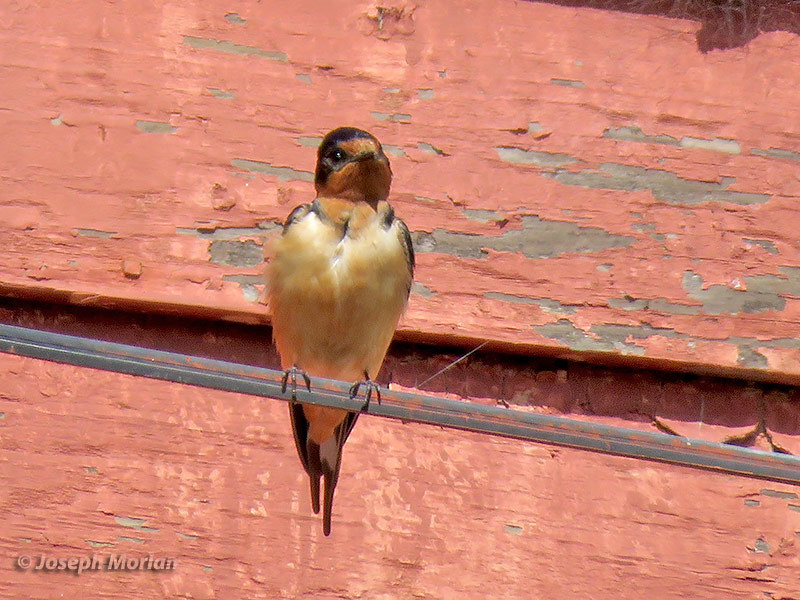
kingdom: Animalia
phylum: Chordata
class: Aves
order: Passeriformes
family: Hirundinidae
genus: Hirundo
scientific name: Hirundo rustica
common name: Barn swallow
